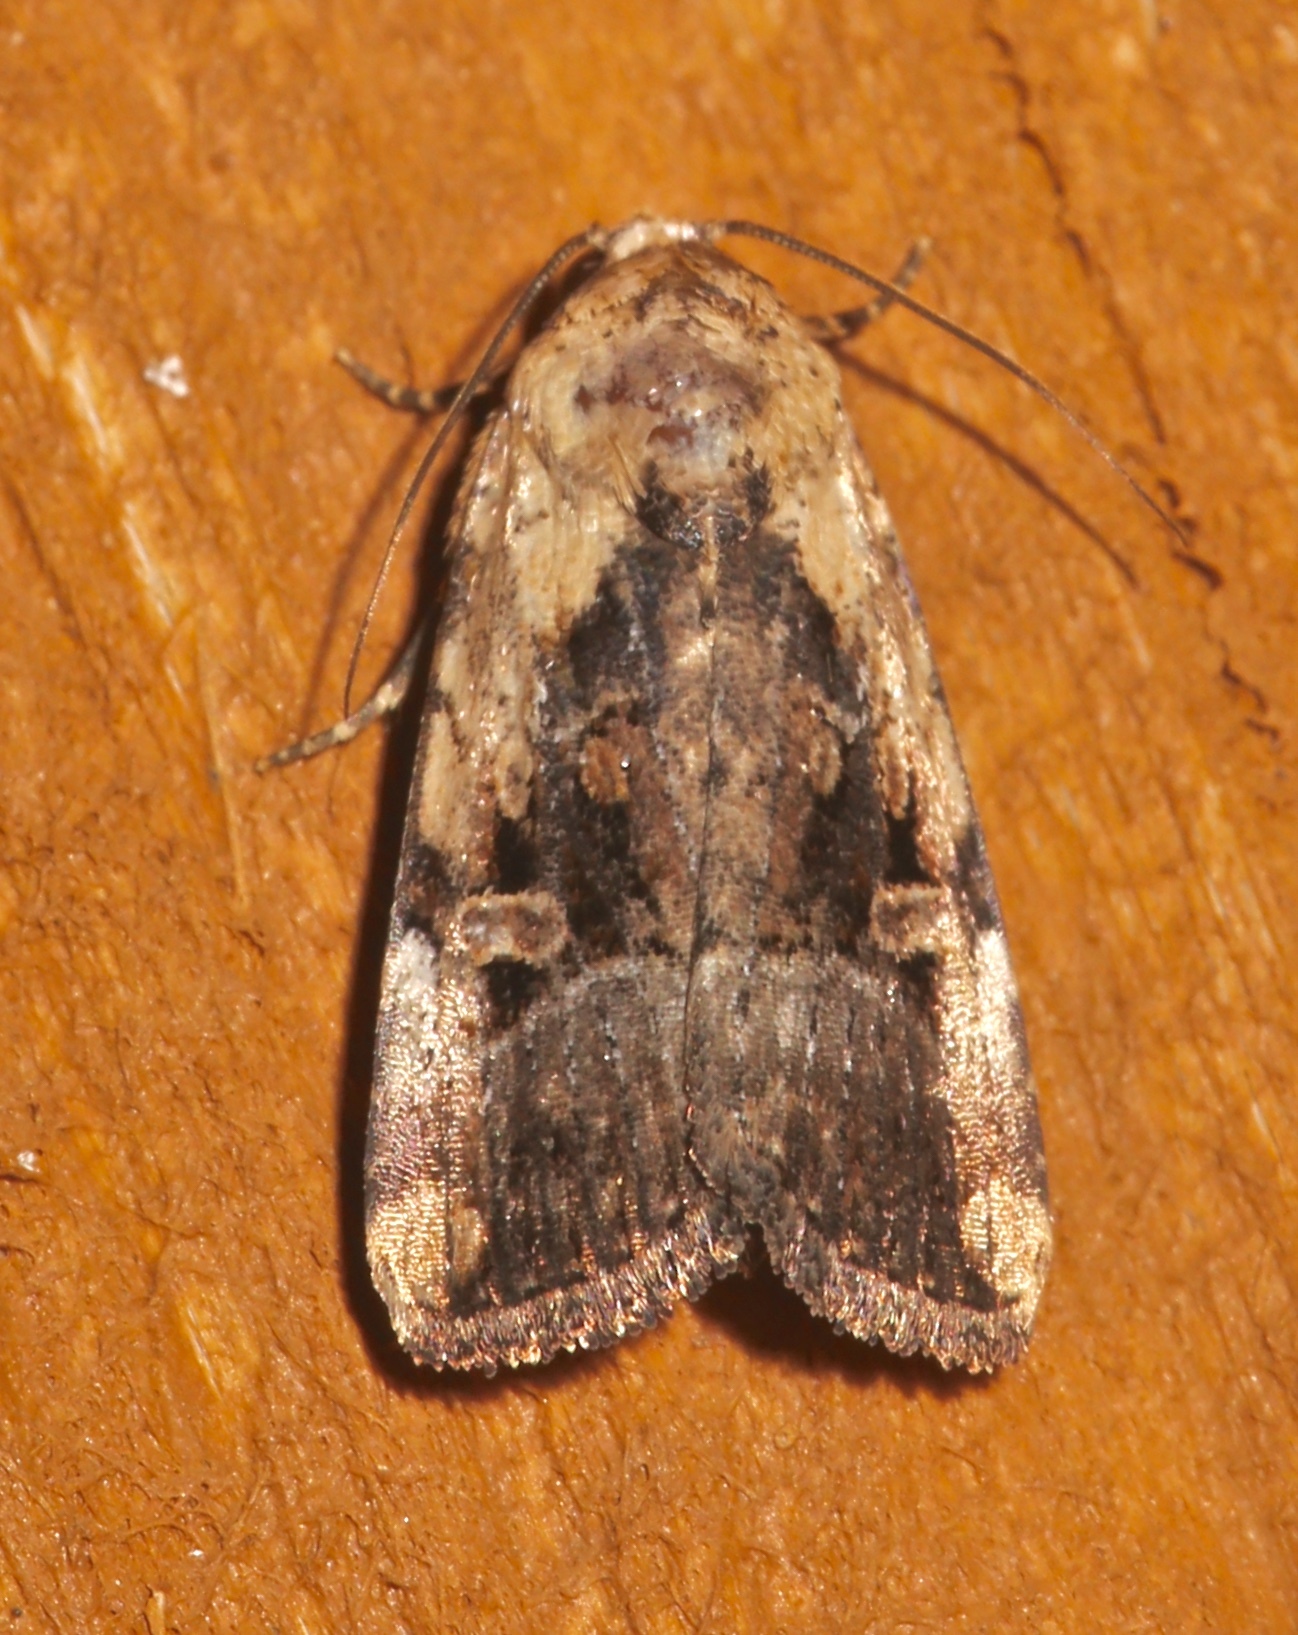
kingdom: Animalia
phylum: Arthropoda
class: Insecta
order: Lepidoptera
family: Noctuidae
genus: Elaphria
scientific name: Elaphria chalcedonia
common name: Chalcedony midget
